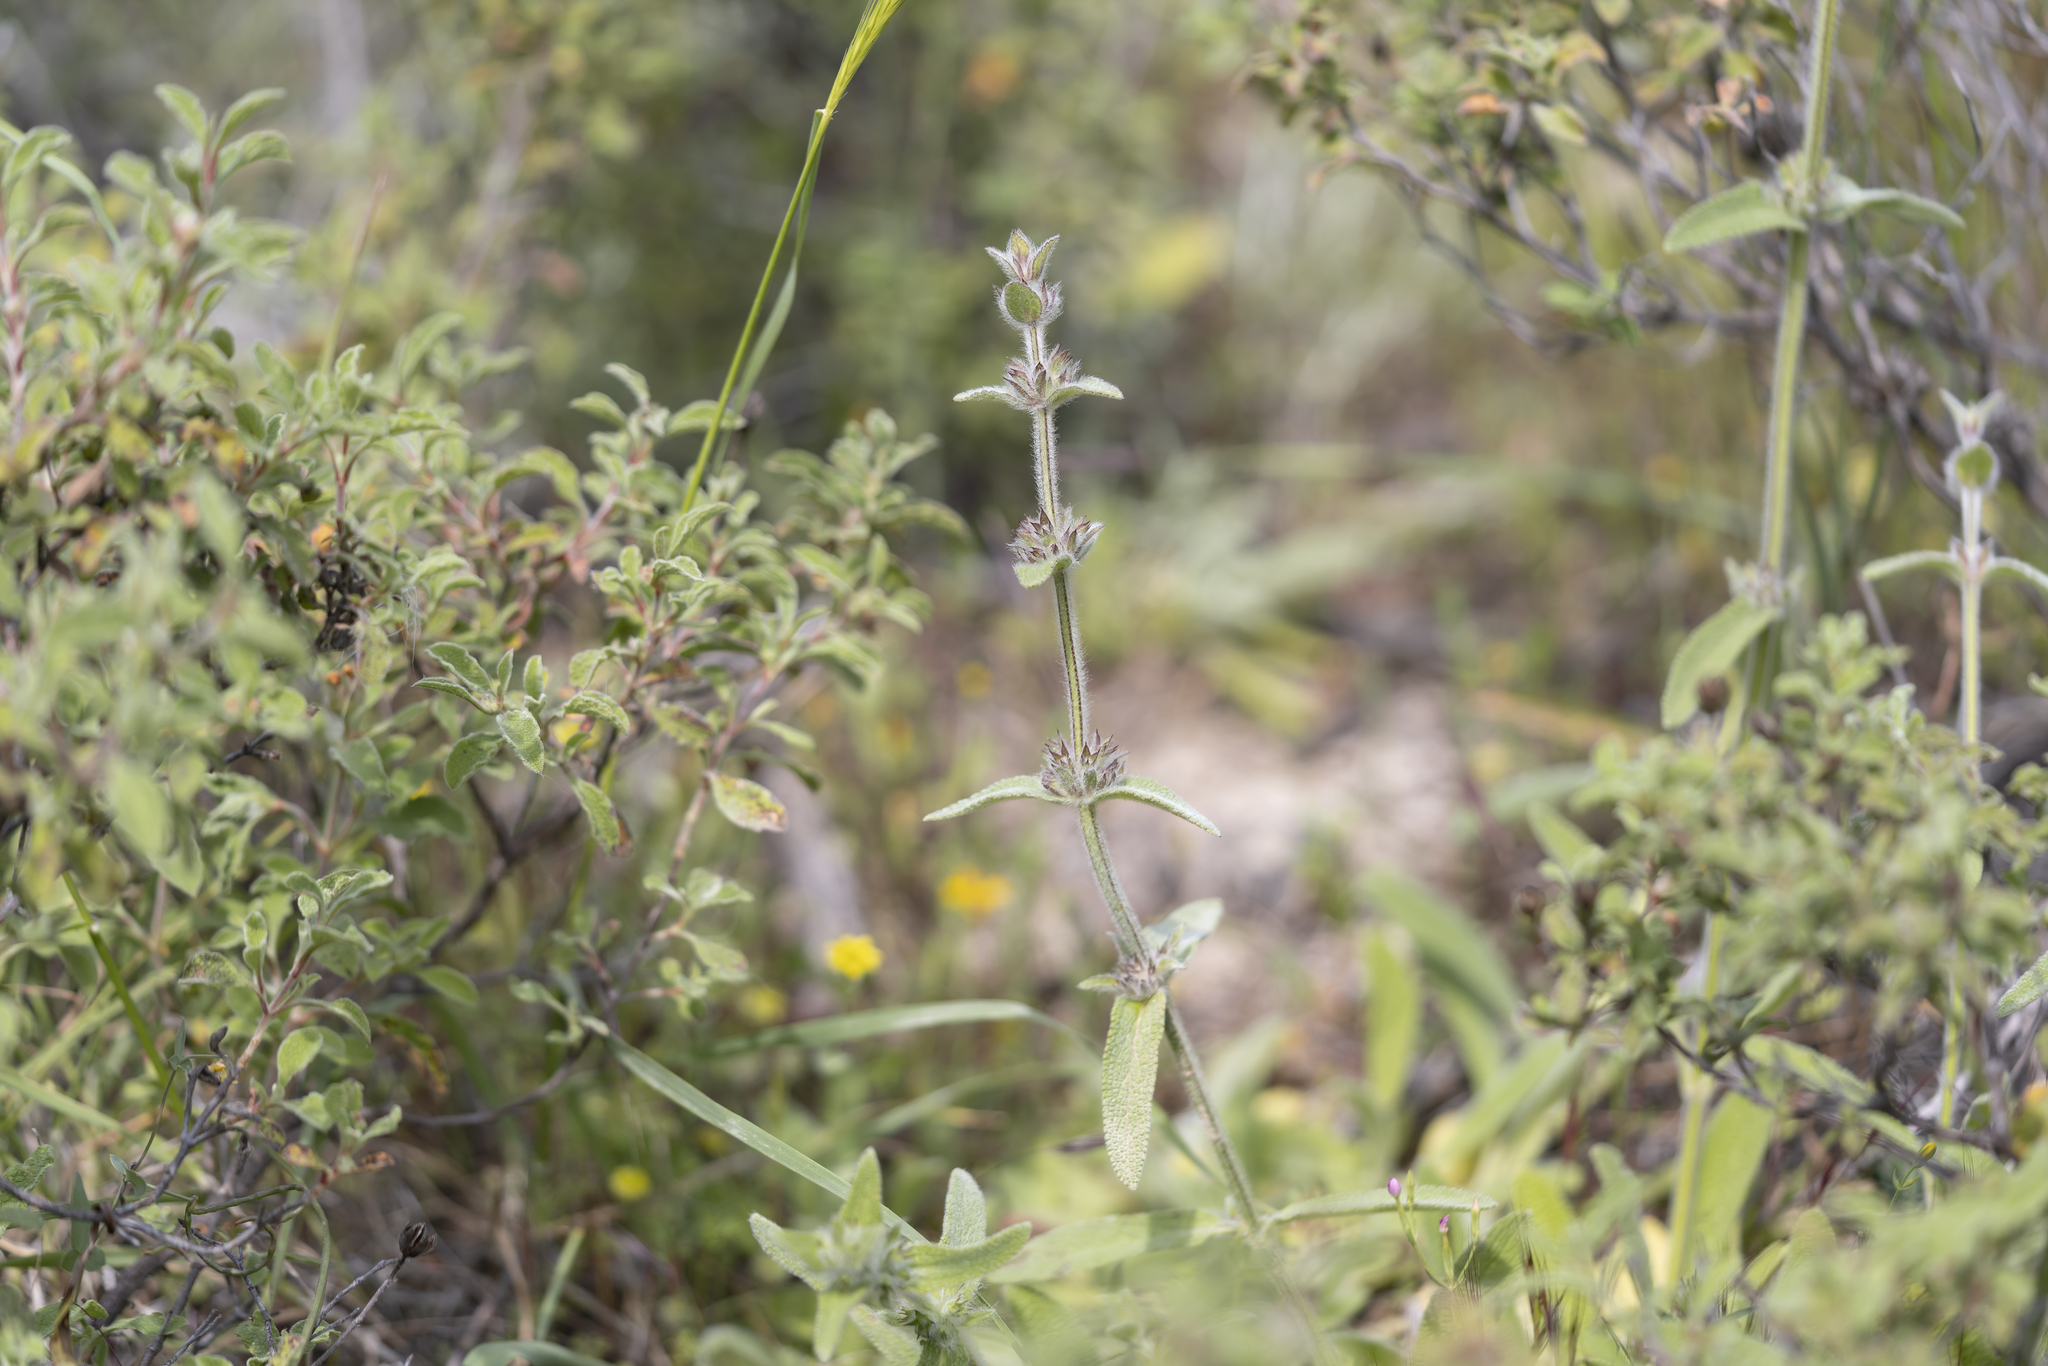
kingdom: Plantae
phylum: Tracheophyta
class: Magnoliopsida
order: Lamiales
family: Lamiaceae
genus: Stachys
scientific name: Stachys cretica
